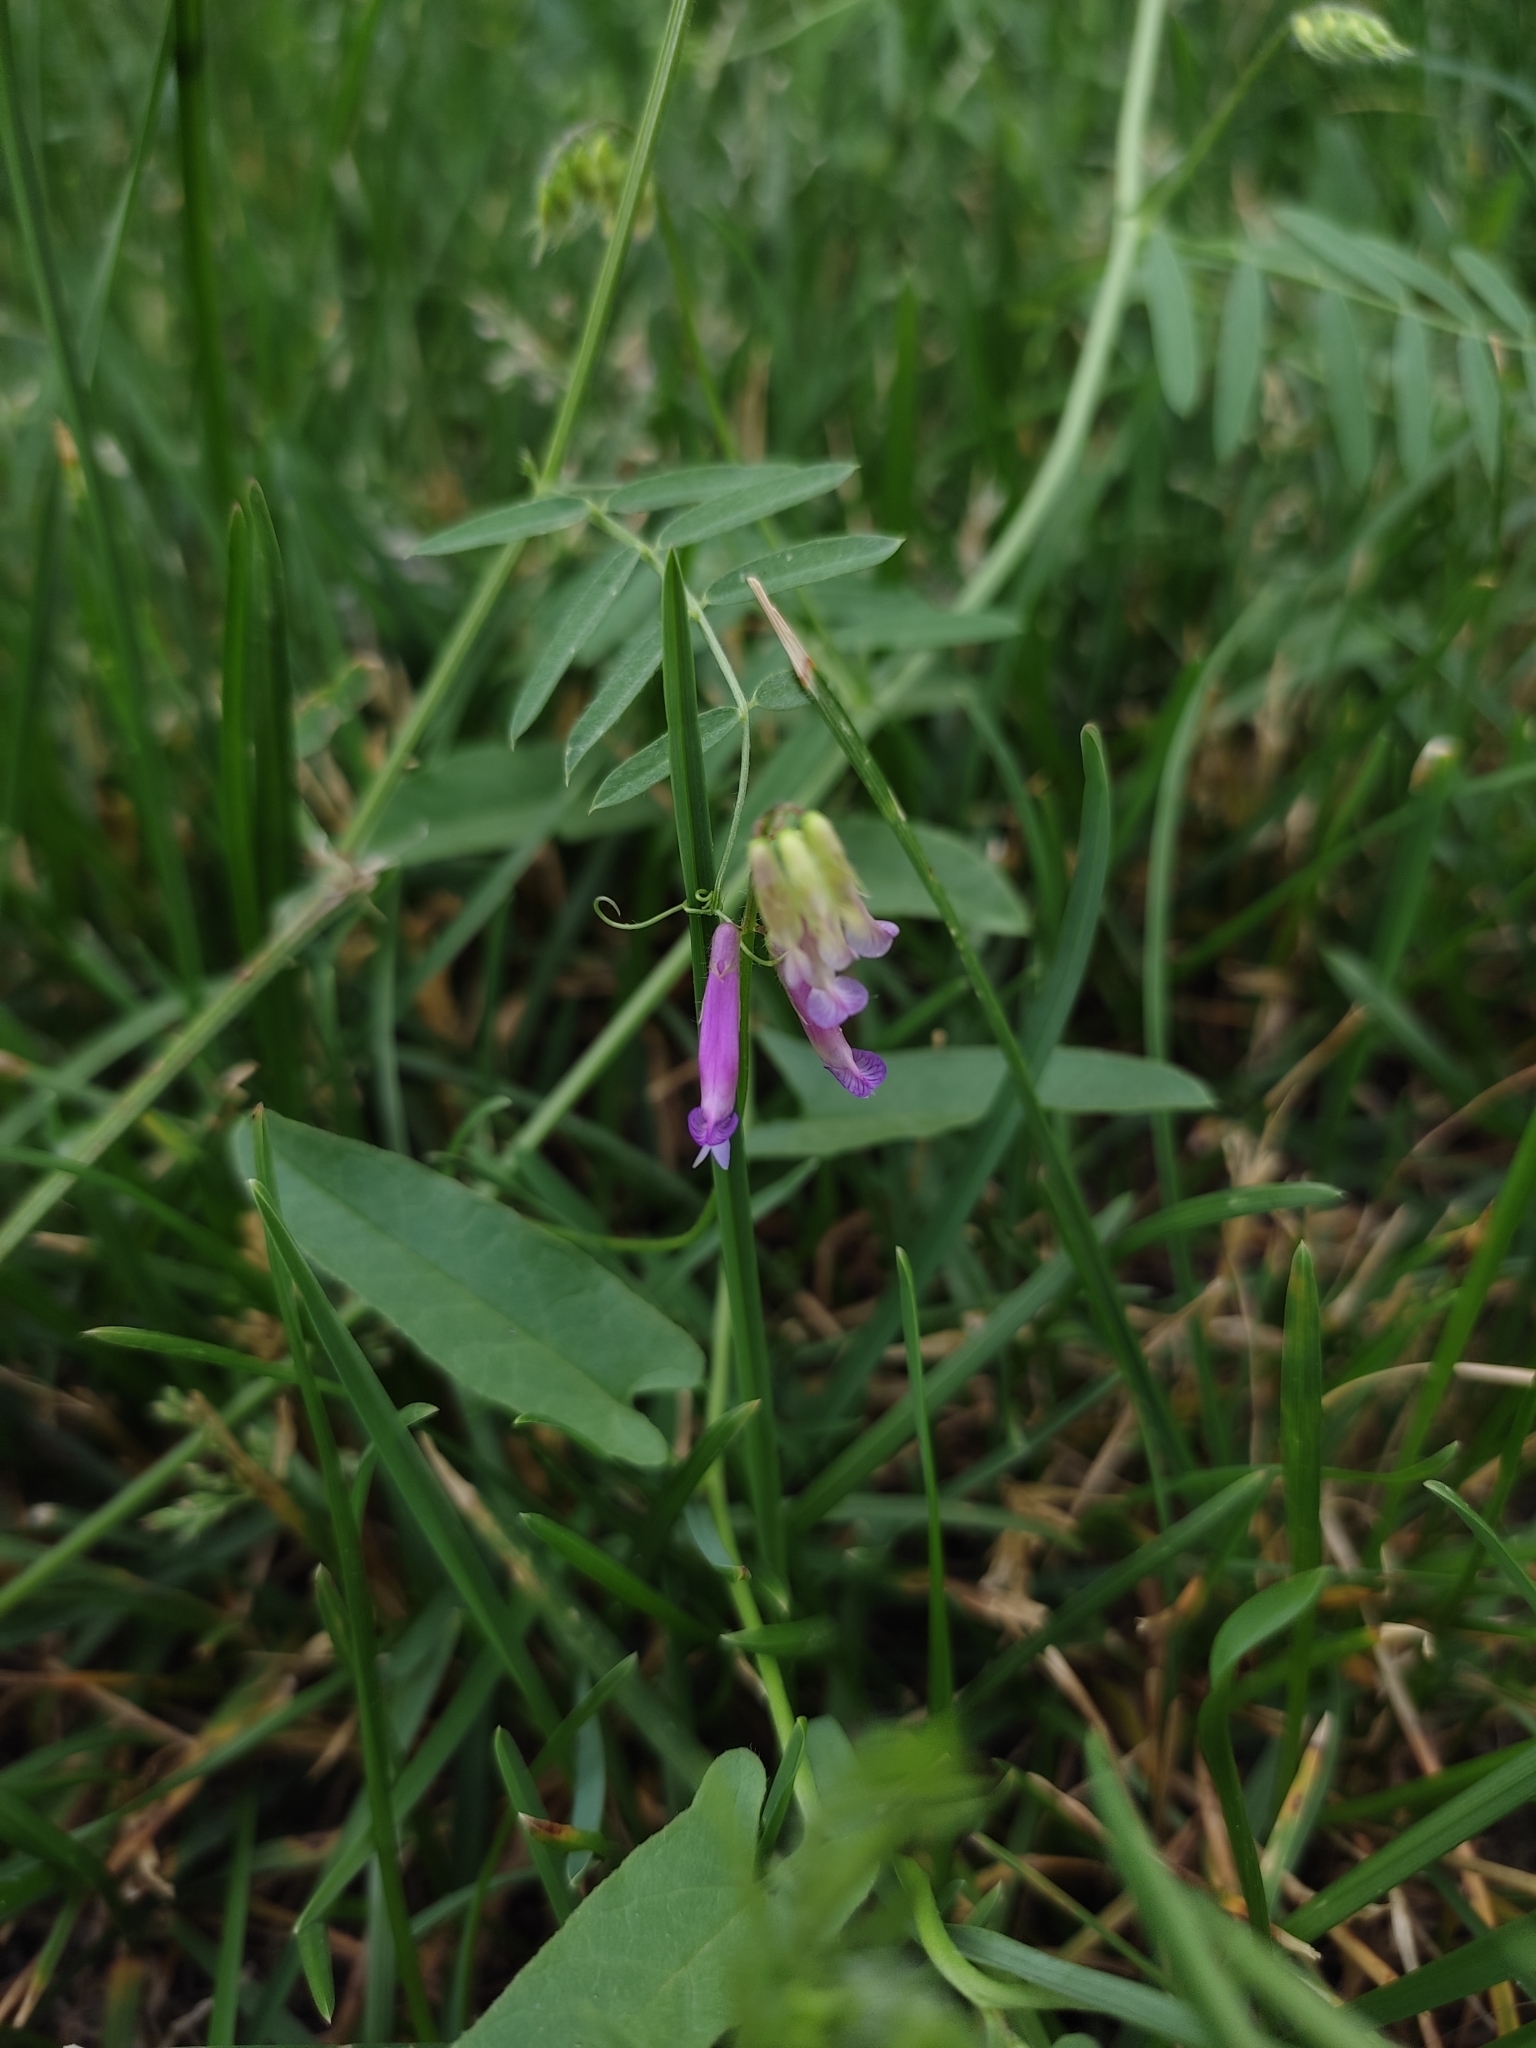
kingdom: Plantae
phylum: Tracheophyta
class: Magnoliopsida
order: Fabales
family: Fabaceae
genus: Vicia
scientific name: Vicia villosa
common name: Fodder vetch
